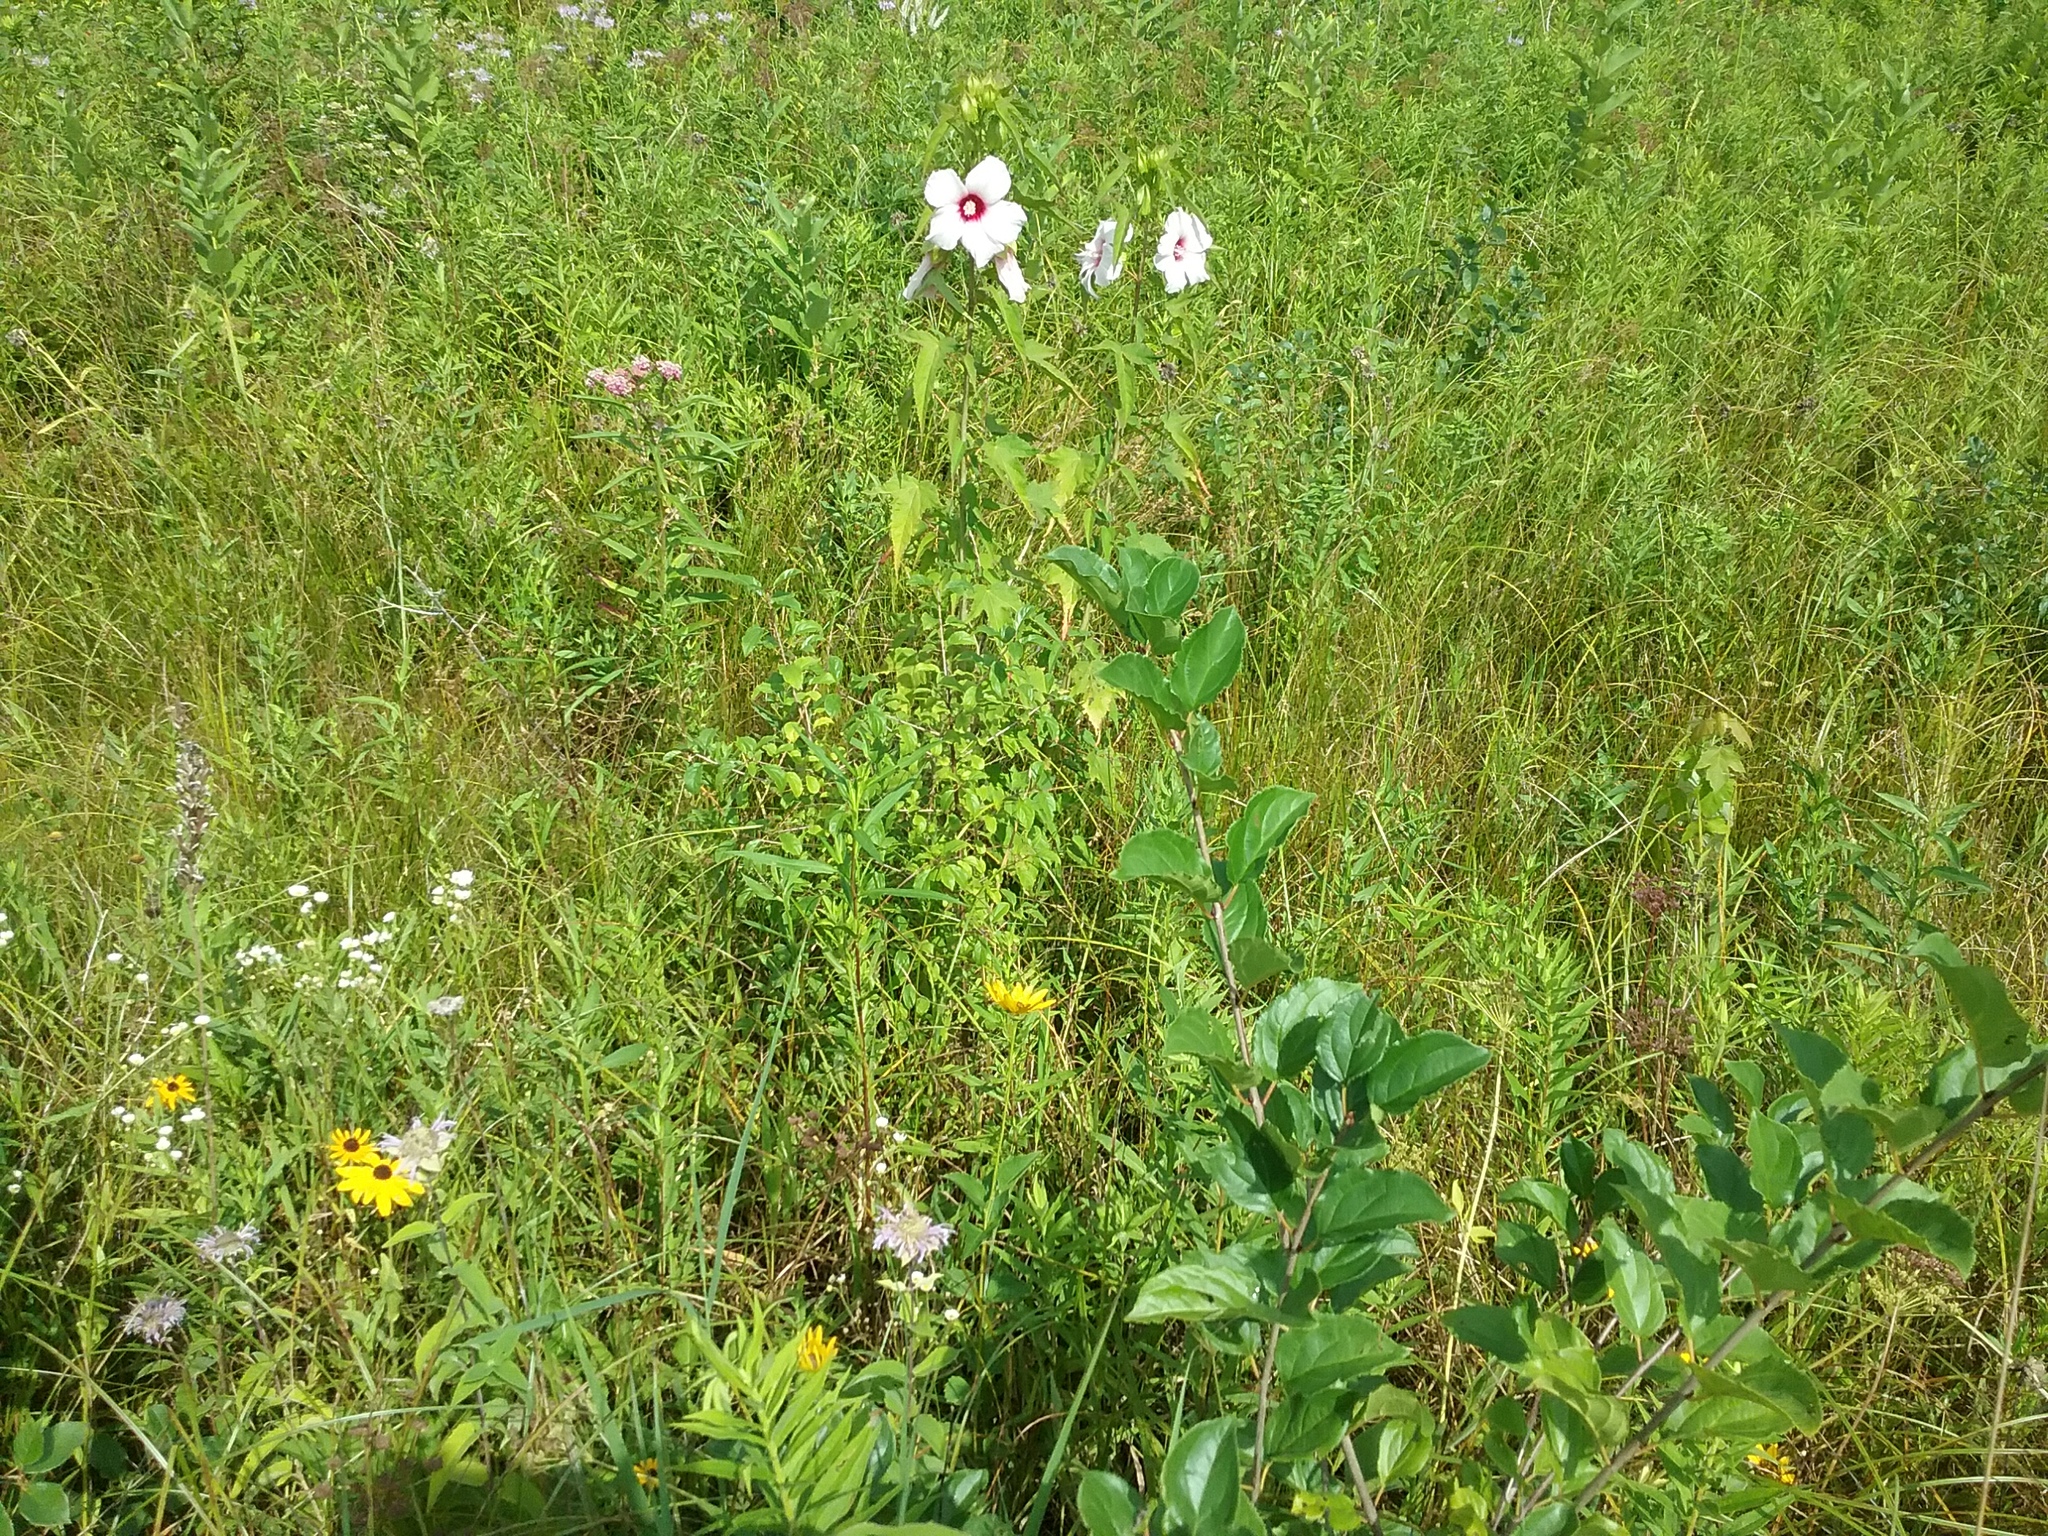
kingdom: Plantae
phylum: Tracheophyta
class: Magnoliopsida
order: Malvales
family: Malvaceae
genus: Hibiscus
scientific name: Hibiscus laevis
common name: Scarlet rose-mallow
